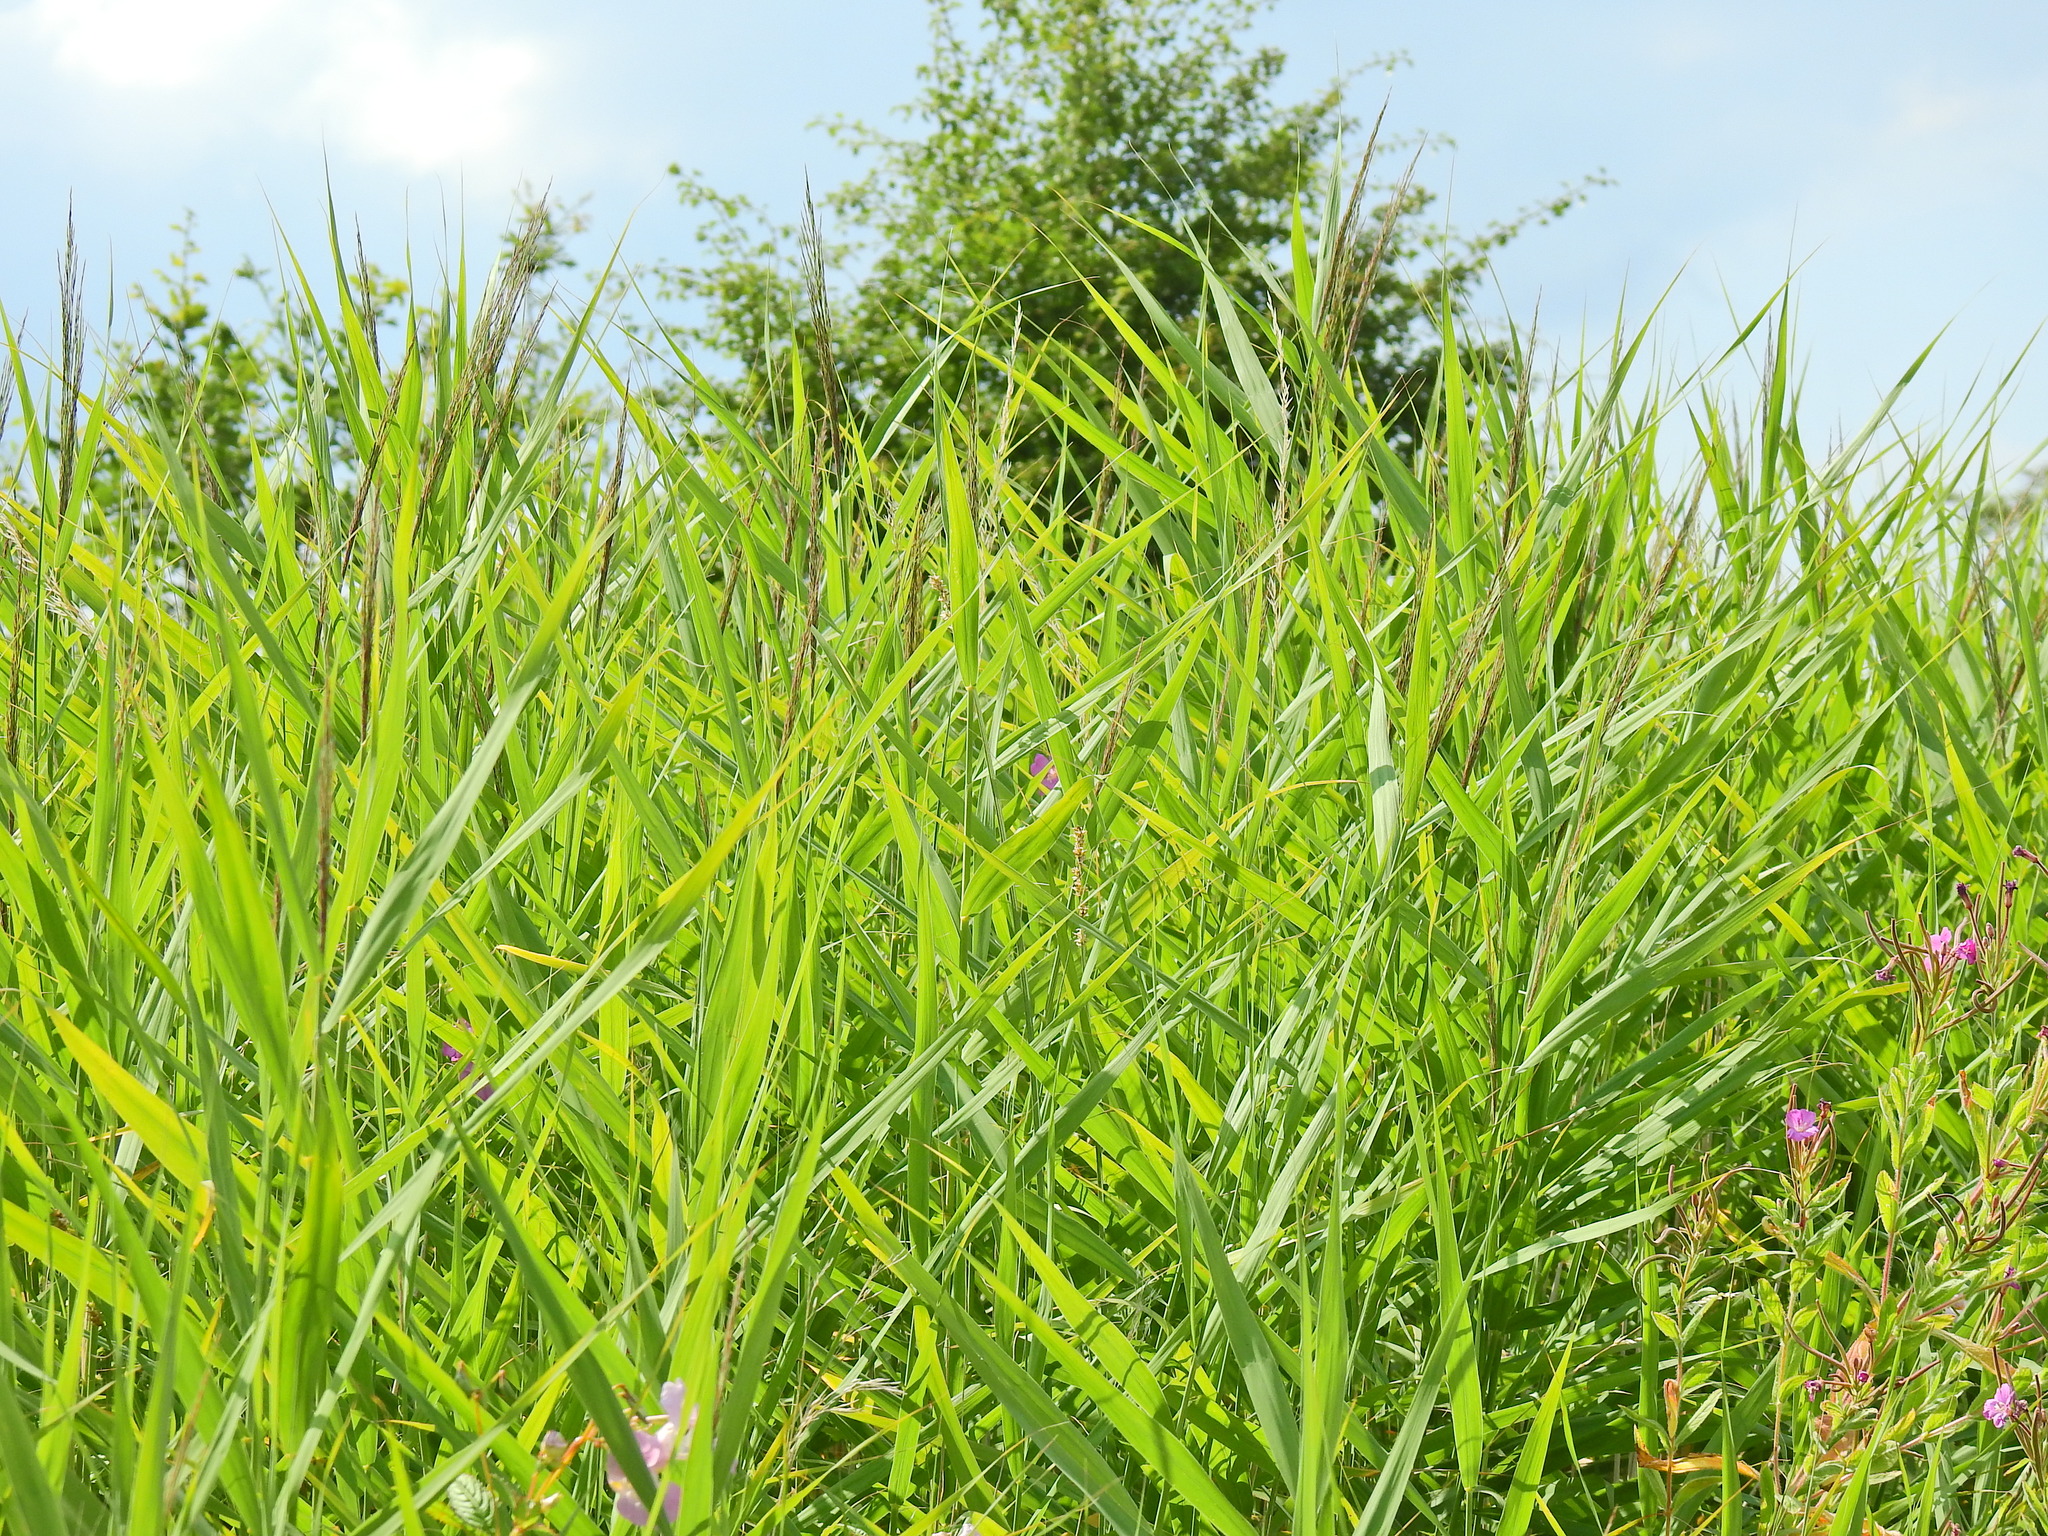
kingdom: Plantae
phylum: Tracheophyta
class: Liliopsida
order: Poales
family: Poaceae
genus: Phragmites
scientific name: Phragmites australis
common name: Common reed
